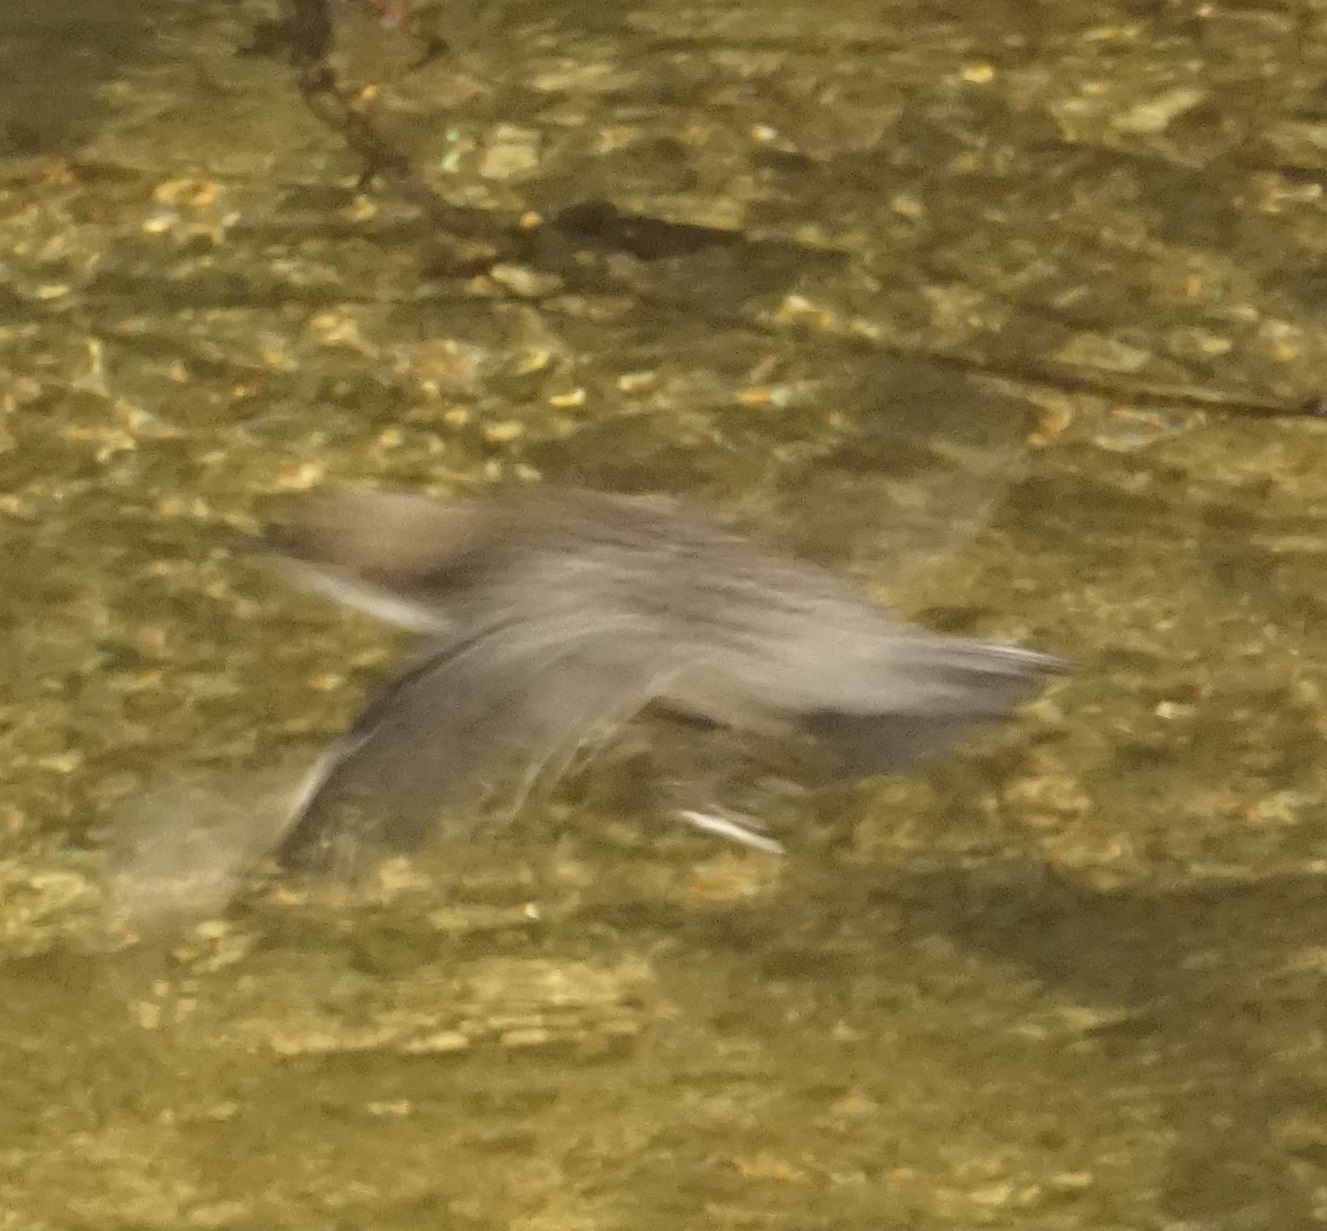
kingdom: Animalia
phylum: Chordata
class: Aves
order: Passeriformes
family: Cinclidae
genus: Cinclus
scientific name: Cinclus cinclus
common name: White-throated dipper
